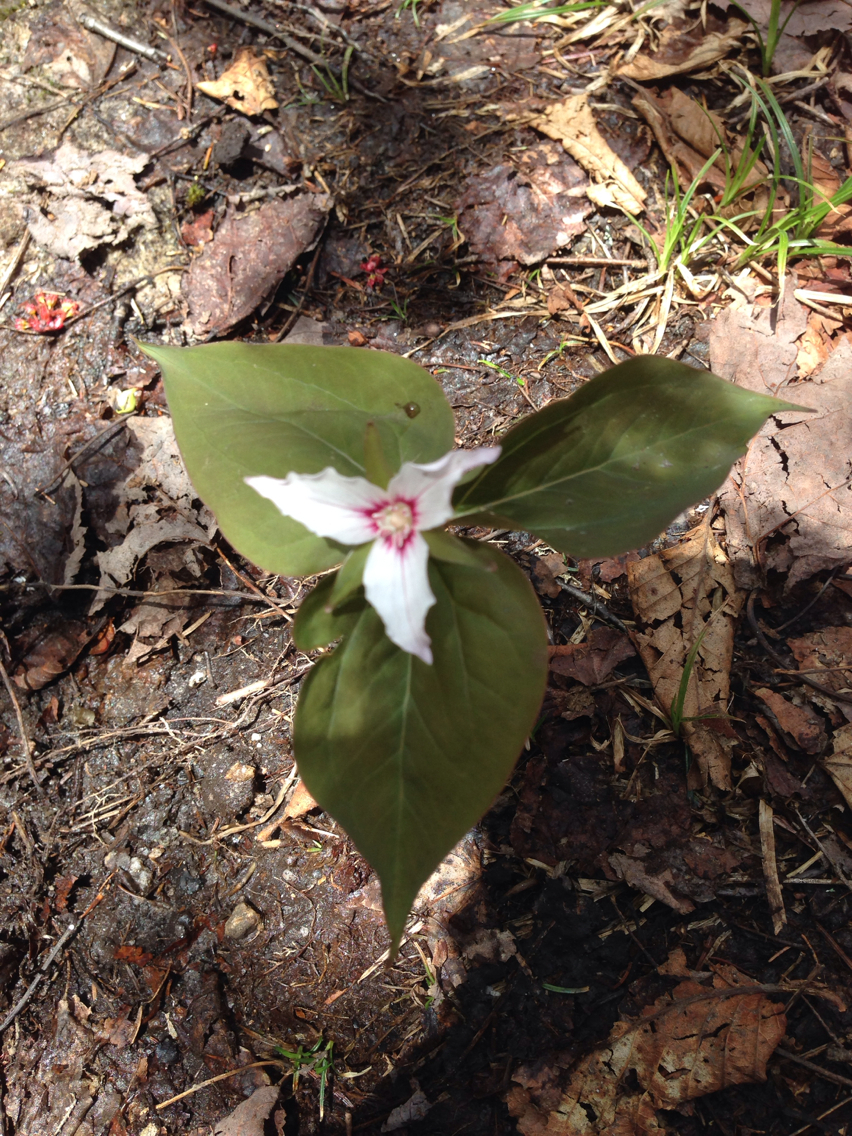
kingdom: Plantae
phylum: Tracheophyta
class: Liliopsida
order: Liliales
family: Melanthiaceae
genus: Trillium
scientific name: Trillium undulatum
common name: Paint trillium
